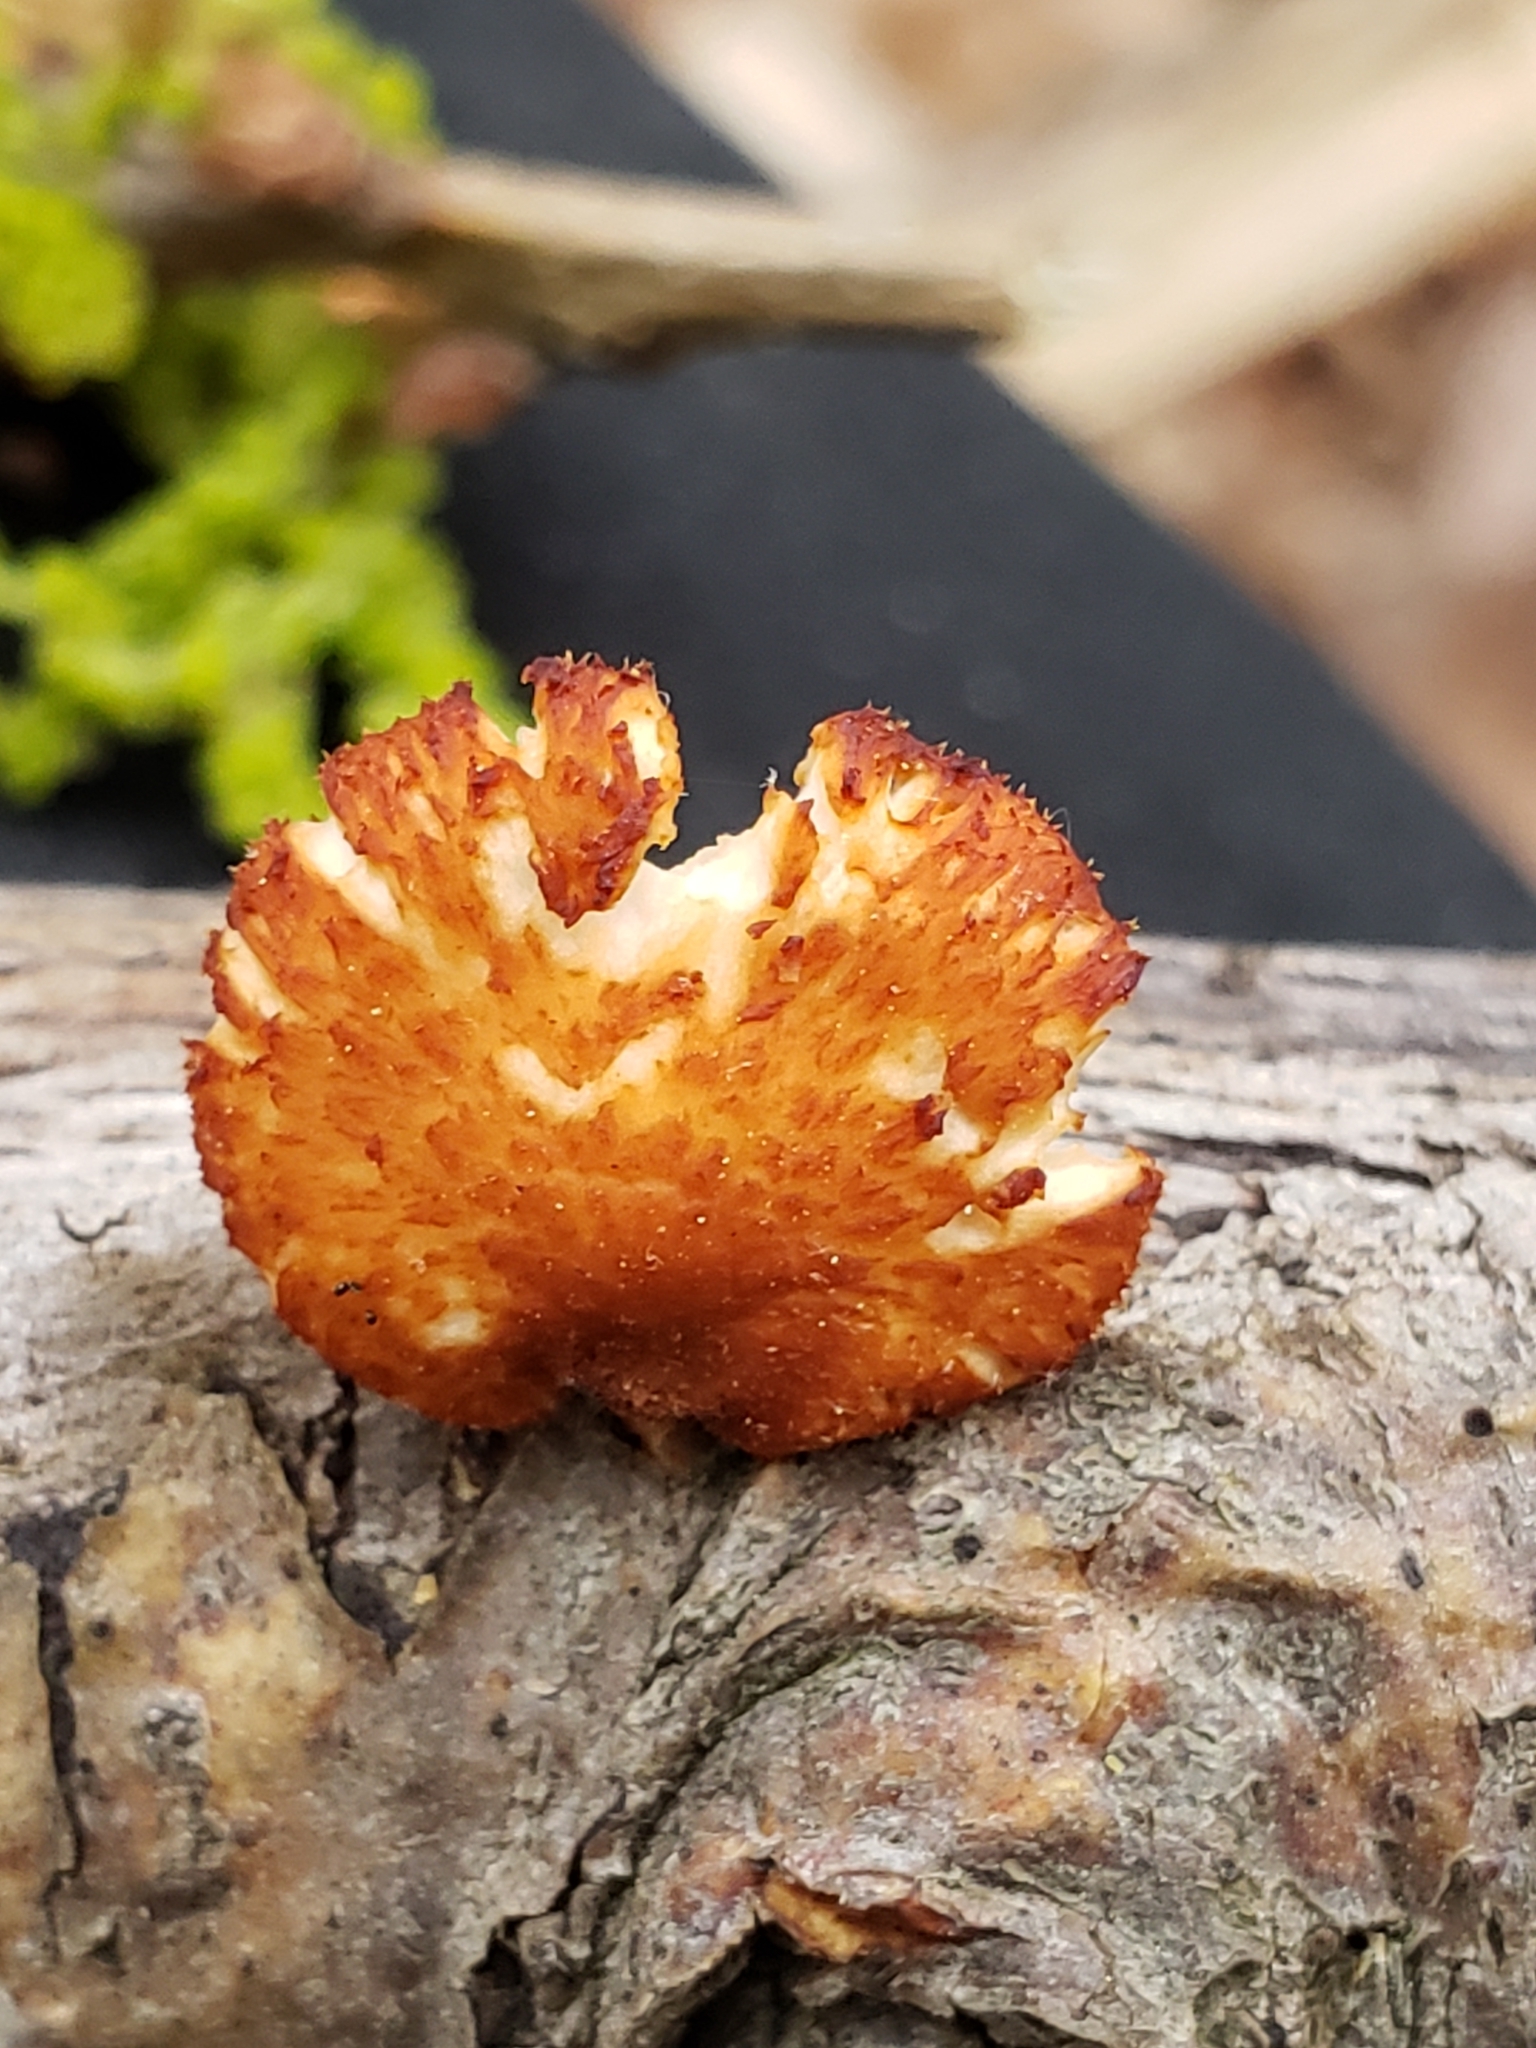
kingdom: Fungi
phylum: Basidiomycota
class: Agaricomycetes
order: Polyporales
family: Polyporaceae
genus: Neofavolus
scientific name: Neofavolus alveolaris
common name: Hexagonal-pored polypore
